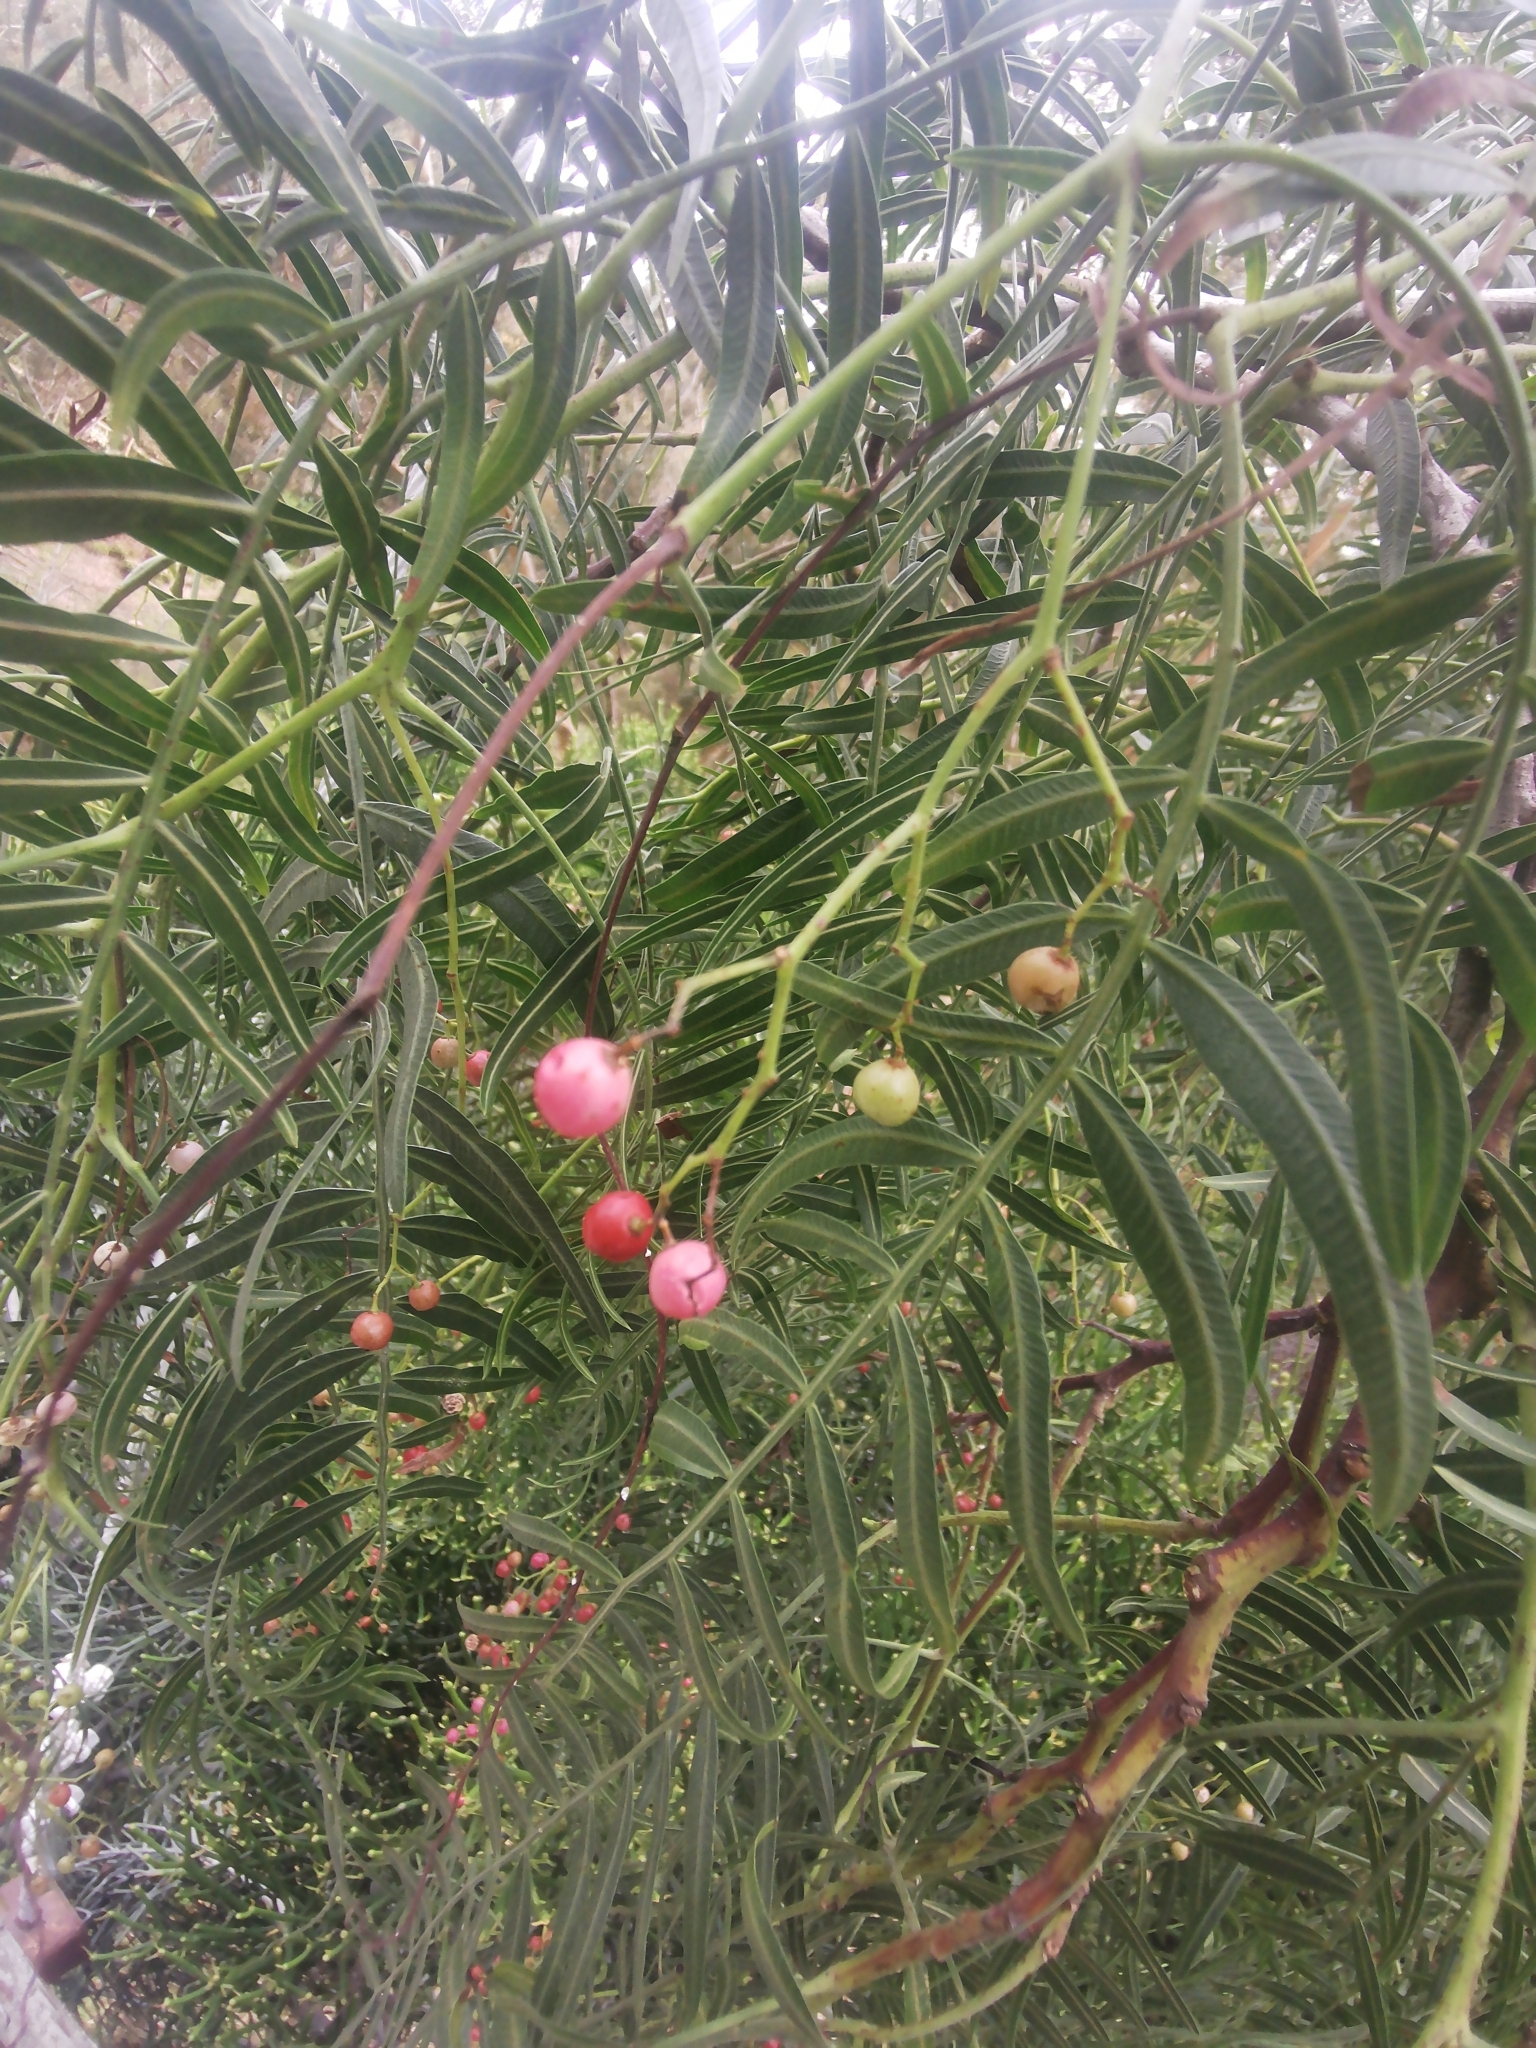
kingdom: Plantae
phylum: Tracheophyta
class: Magnoliopsida
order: Sapindales
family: Anacardiaceae
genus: Schinus
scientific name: Schinus molle
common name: Peruvian peppertree
